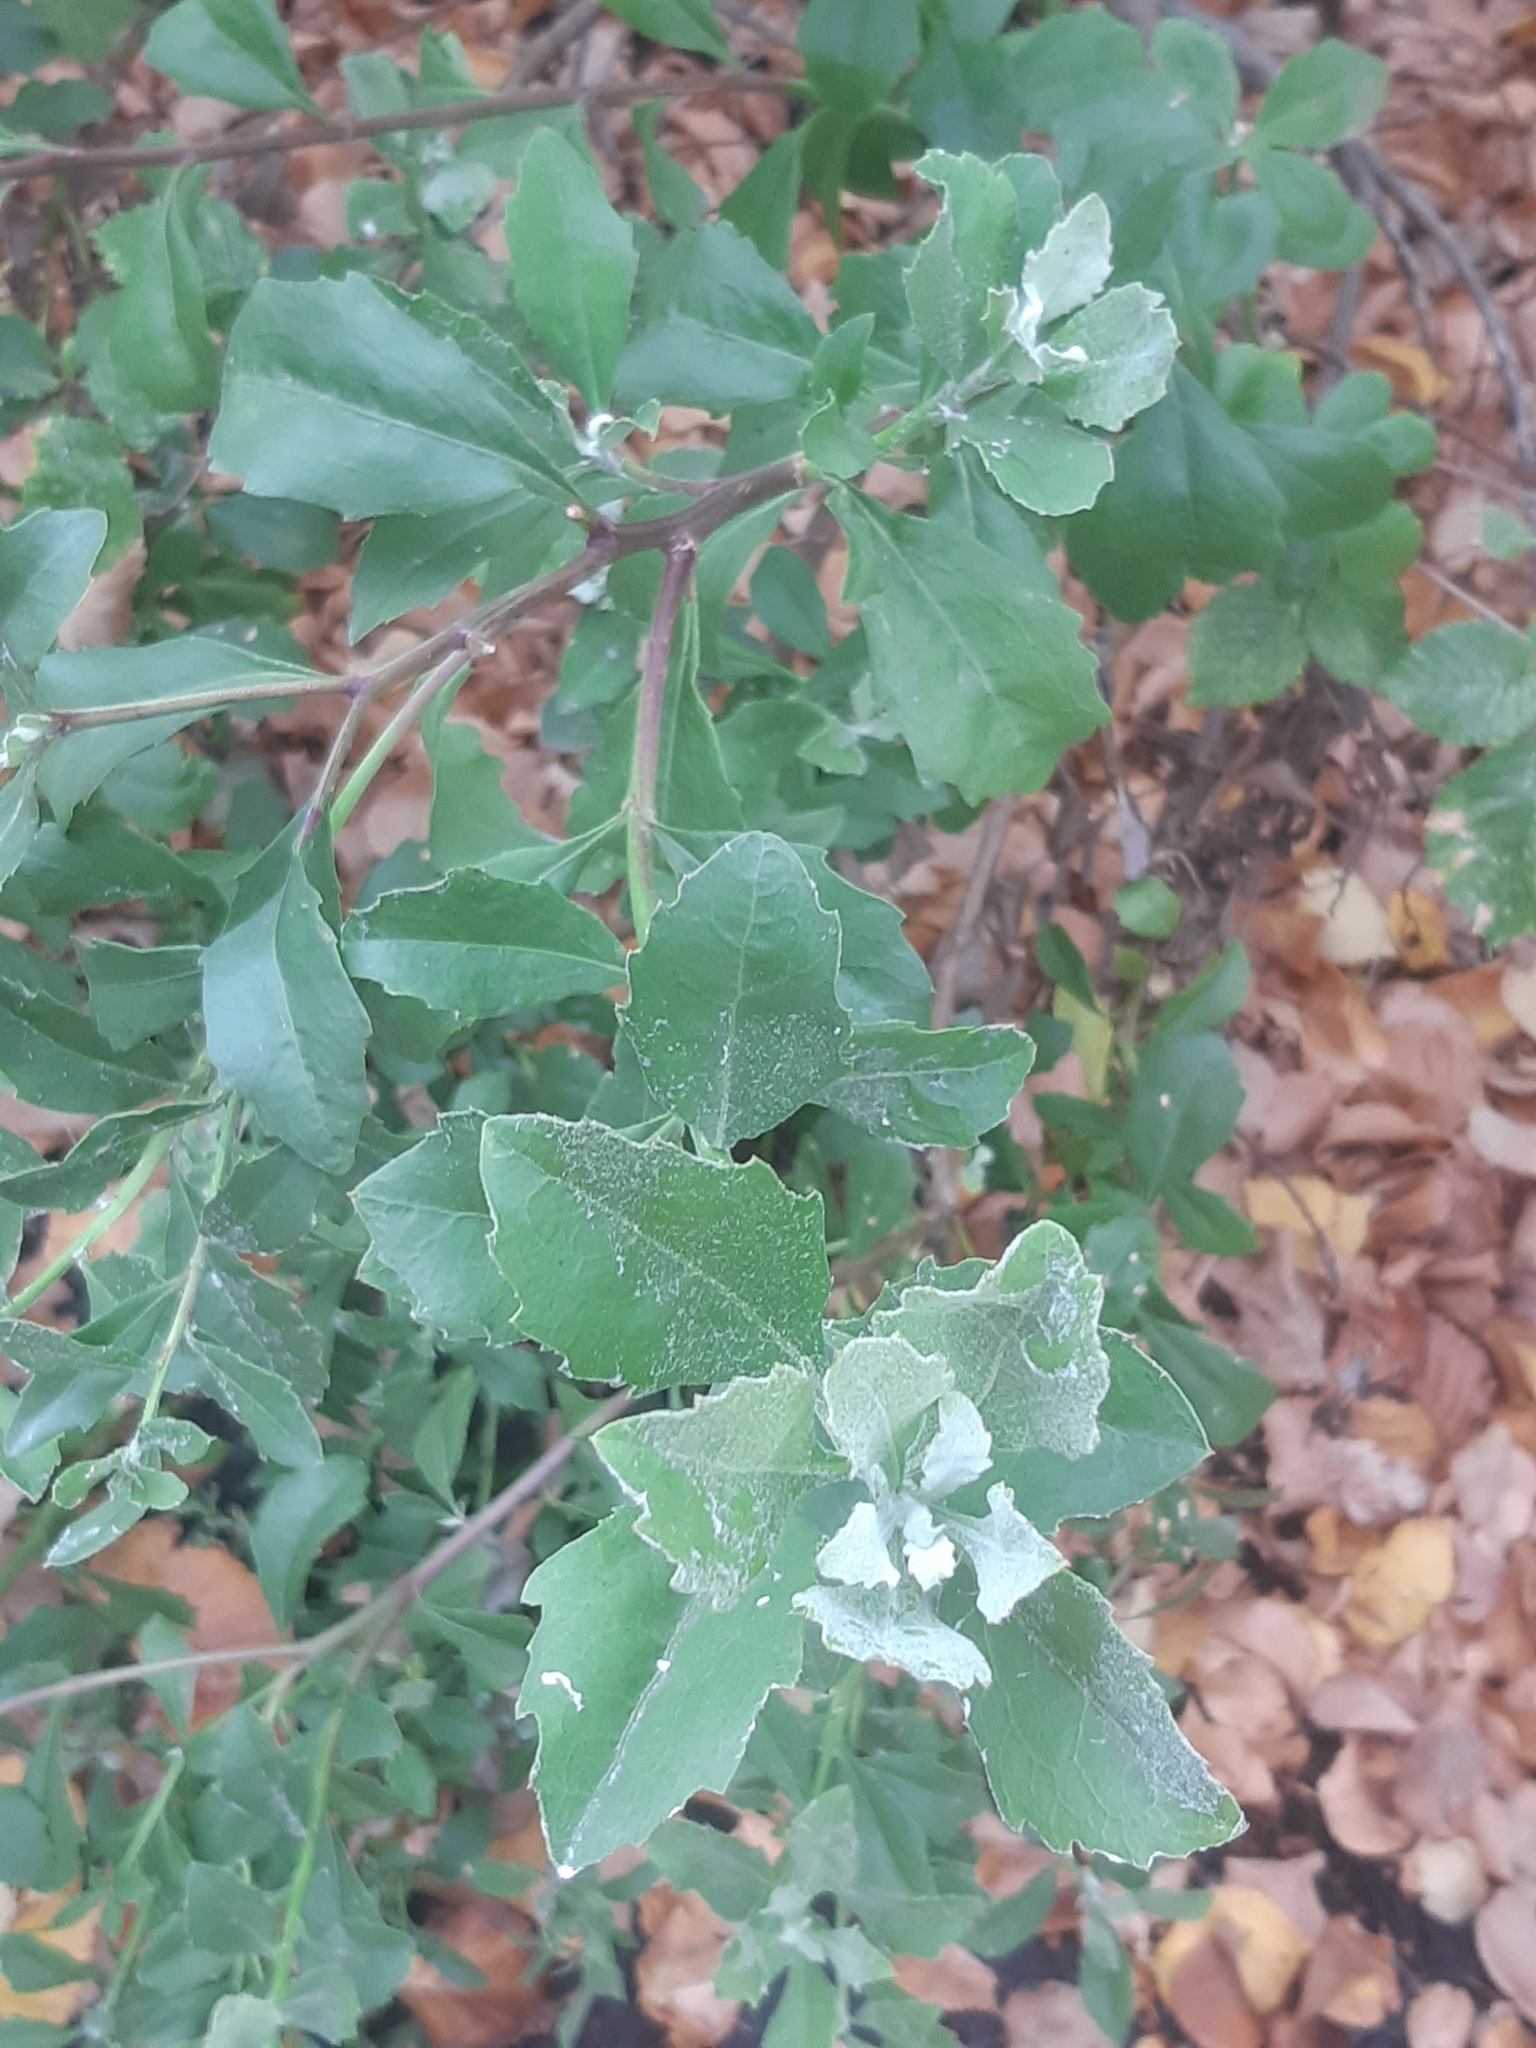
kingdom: Plantae
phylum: Tracheophyta
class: Magnoliopsida
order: Asterales
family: Asteraceae
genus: Osteospermum
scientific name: Osteospermum moniliferum
